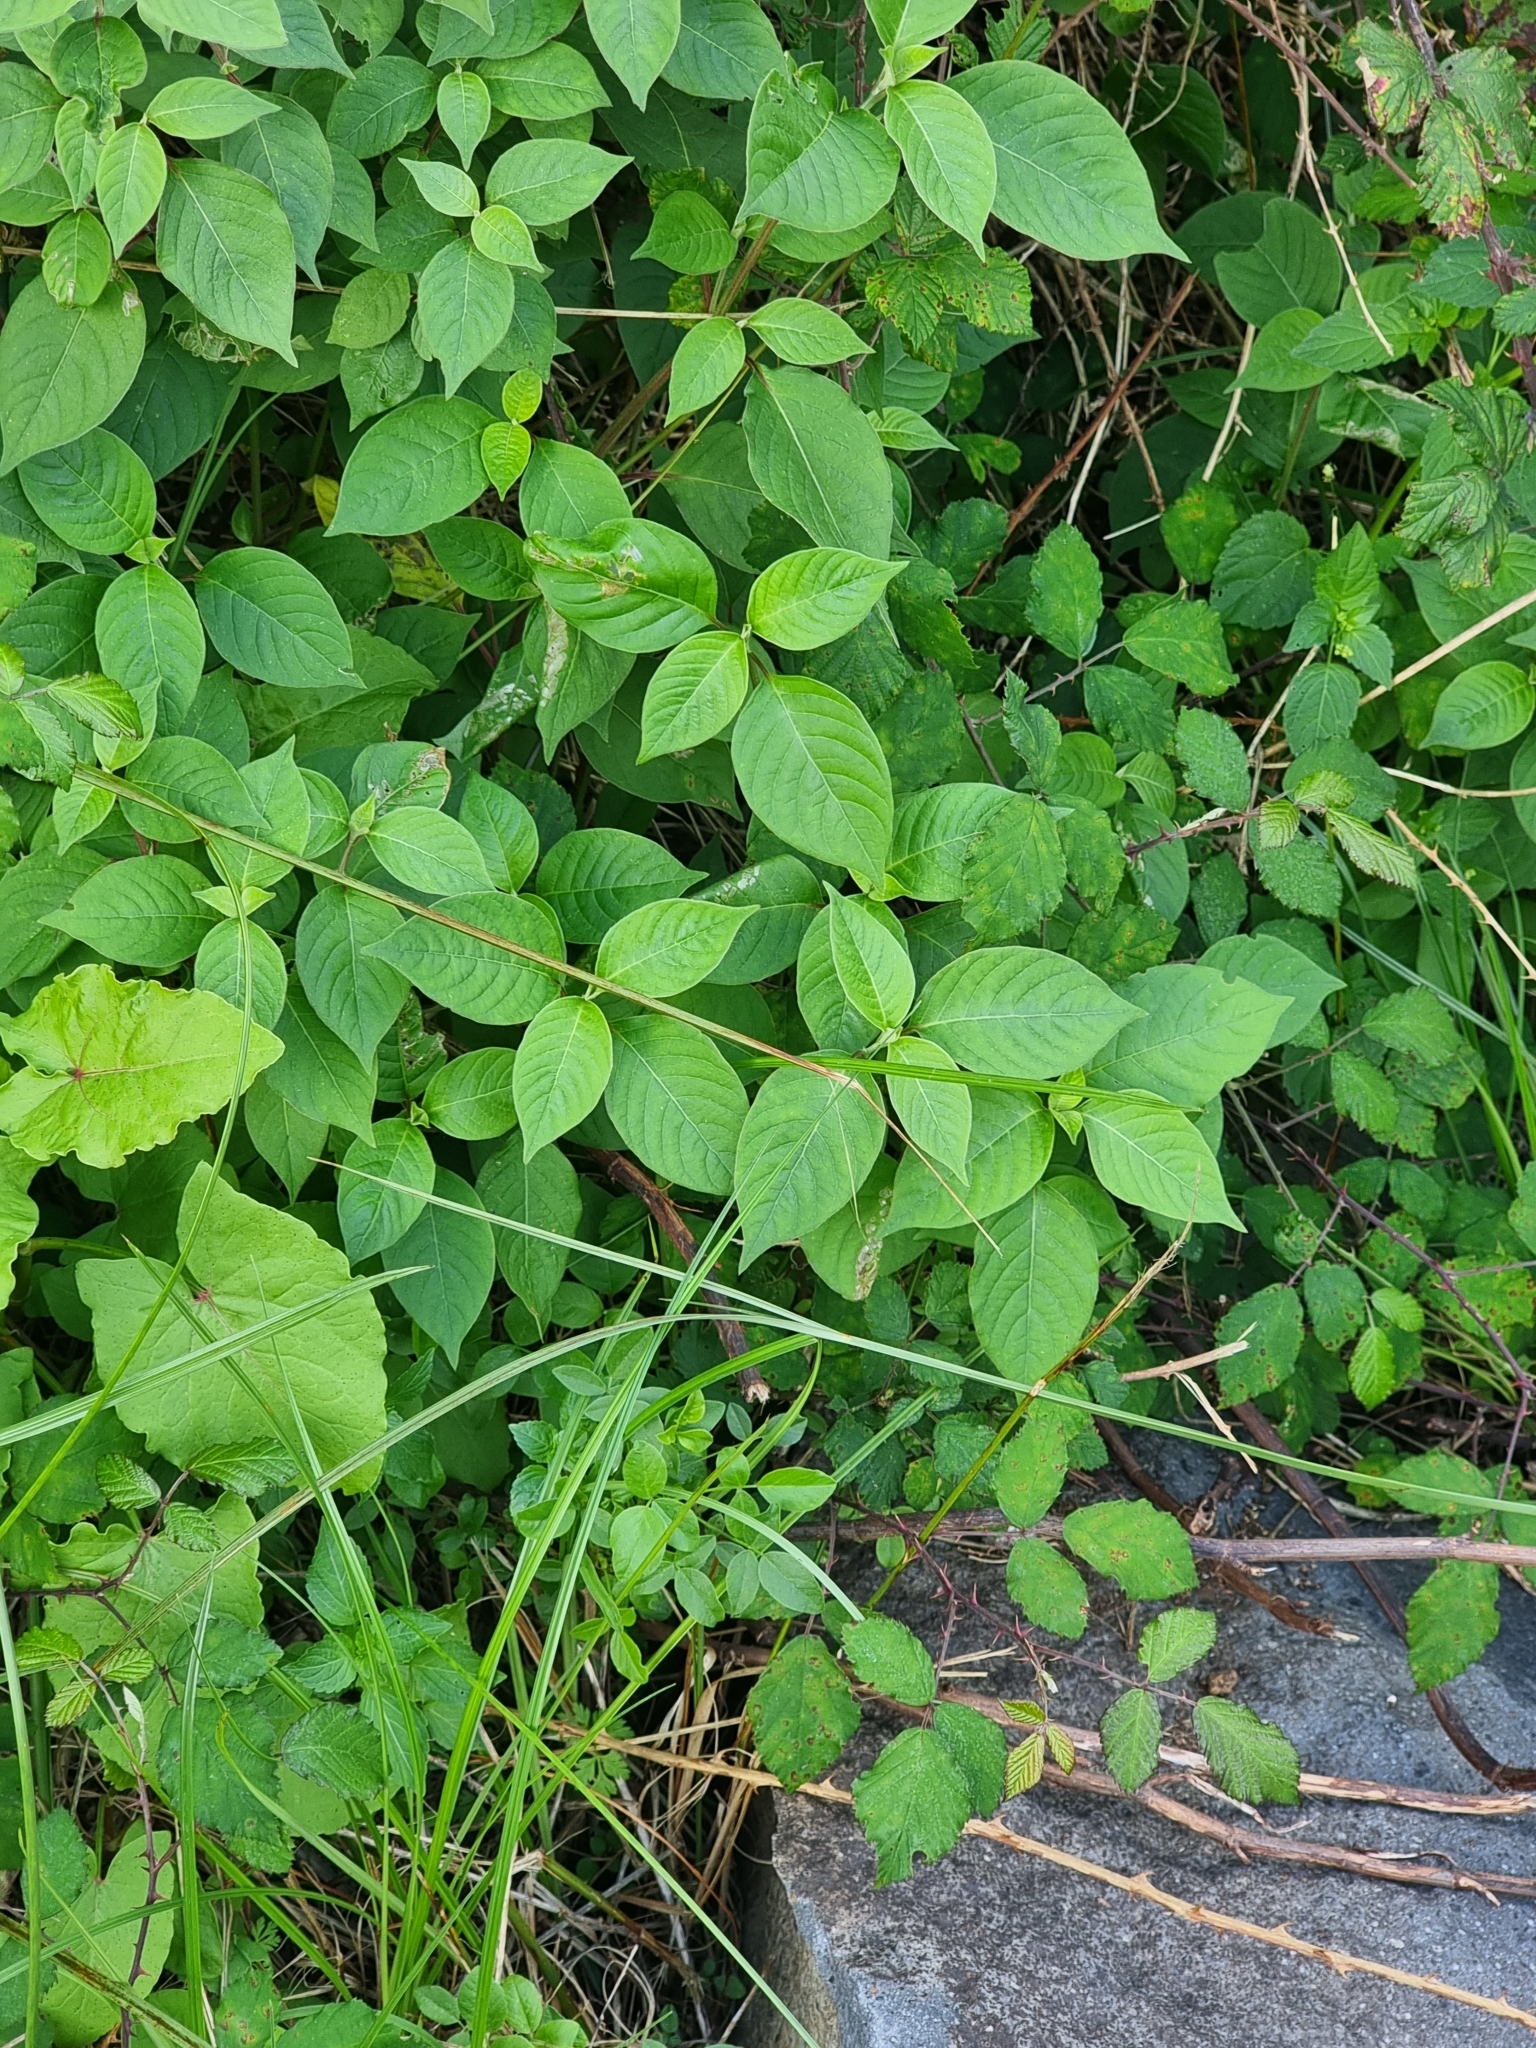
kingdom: Plantae
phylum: Tracheophyta
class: Magnoliopsida
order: Caryophyllales
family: Amaranthaceae
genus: Achyranthes
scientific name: Achyranthes aspera
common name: Devil's horsewhip
